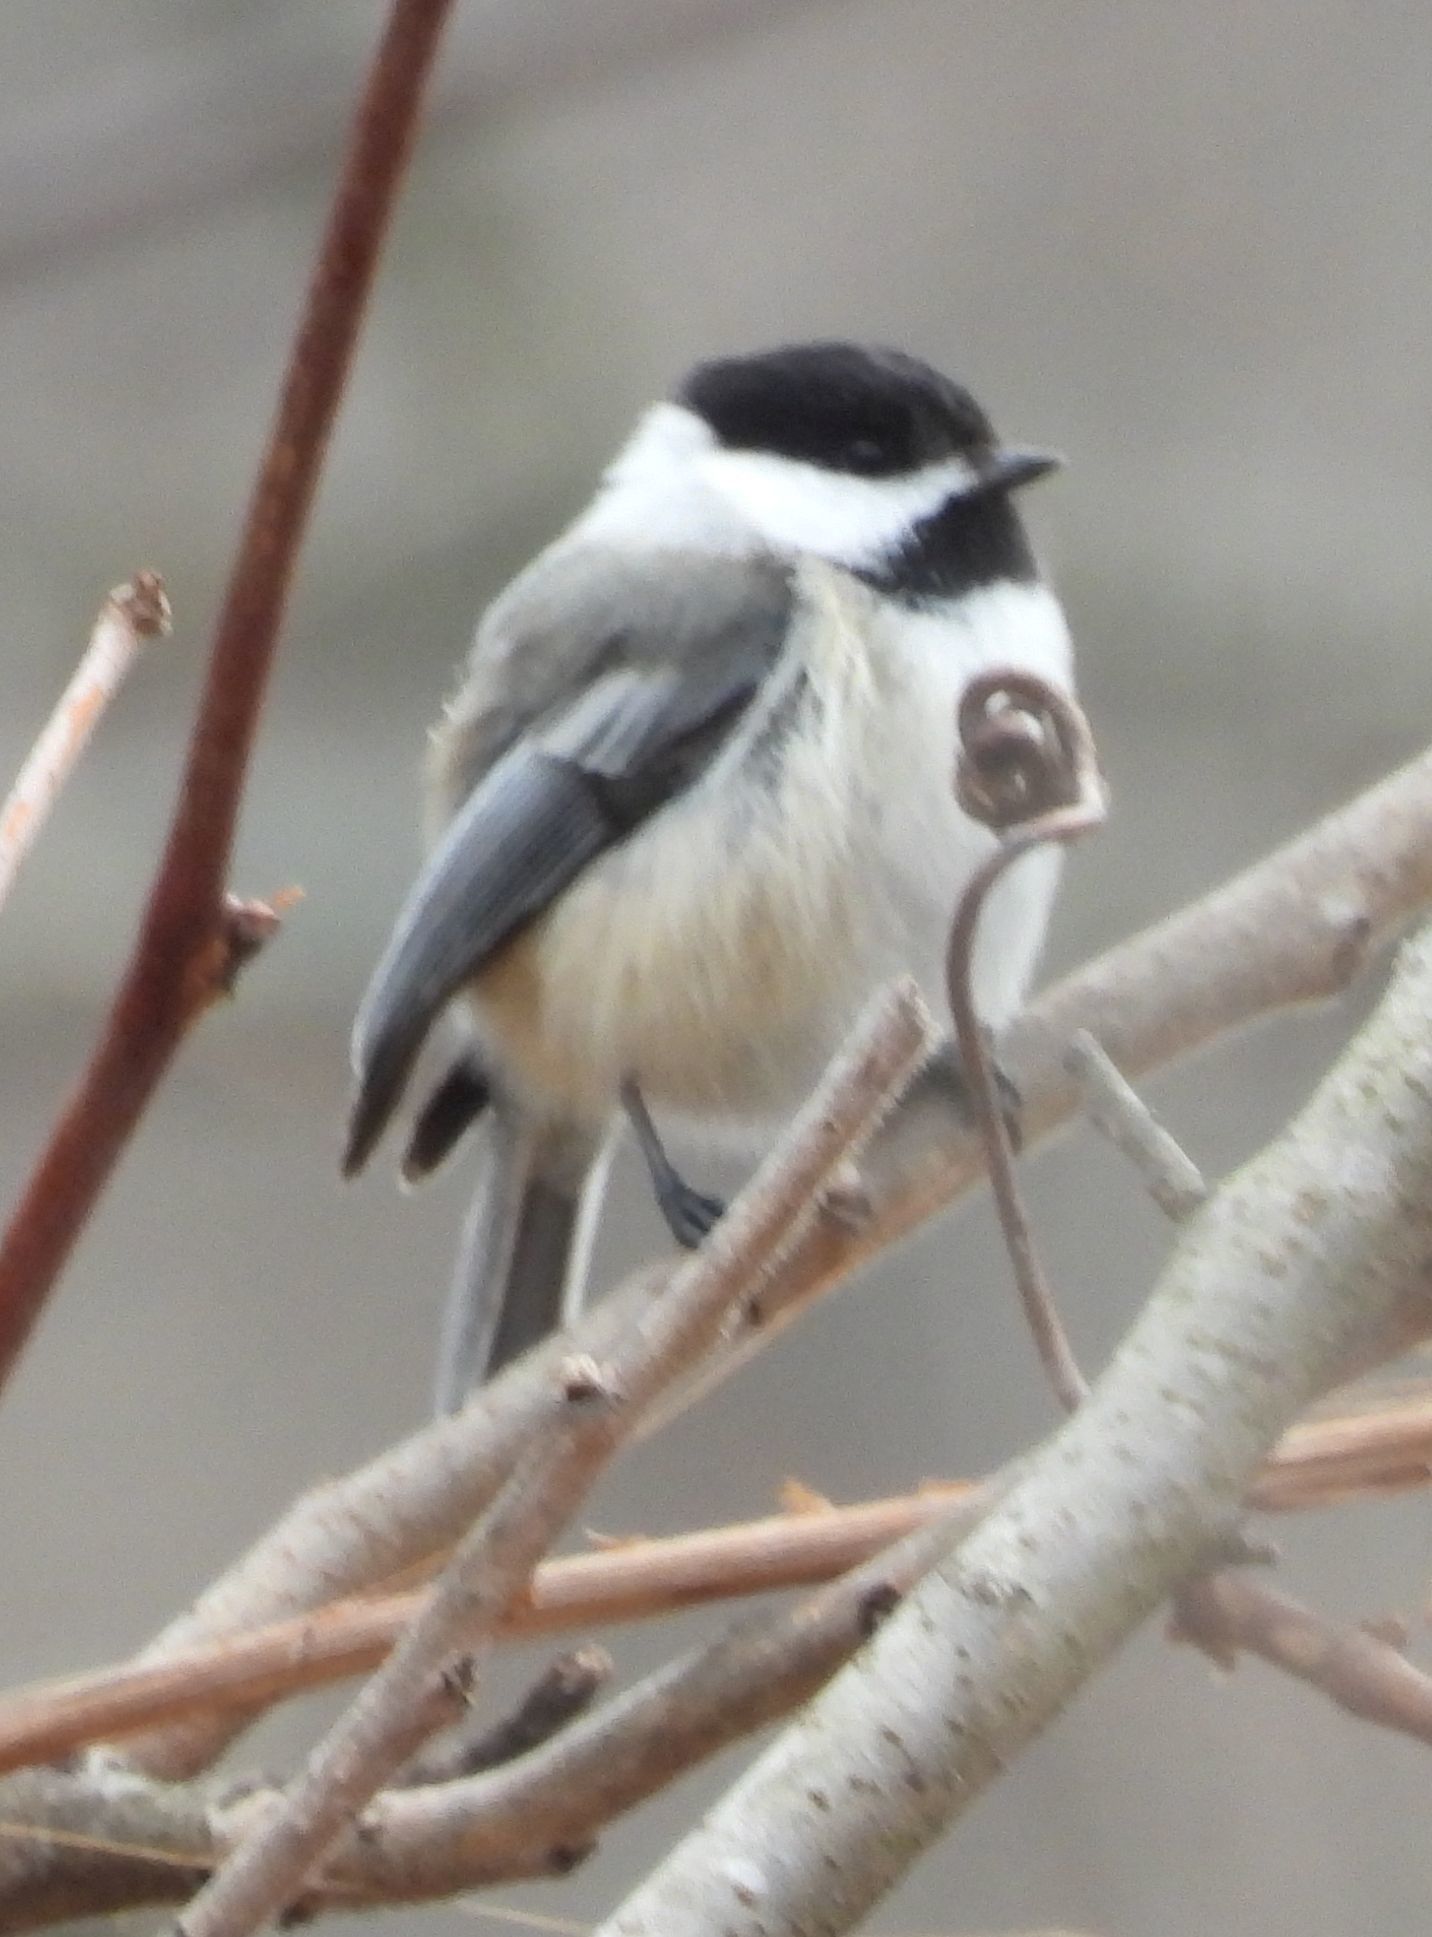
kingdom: Animalia
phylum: Chordata
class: Aves
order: Passeriformes
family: Paridae
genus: Poecile
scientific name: Poecile atricapillus
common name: Black-capped chickadee
